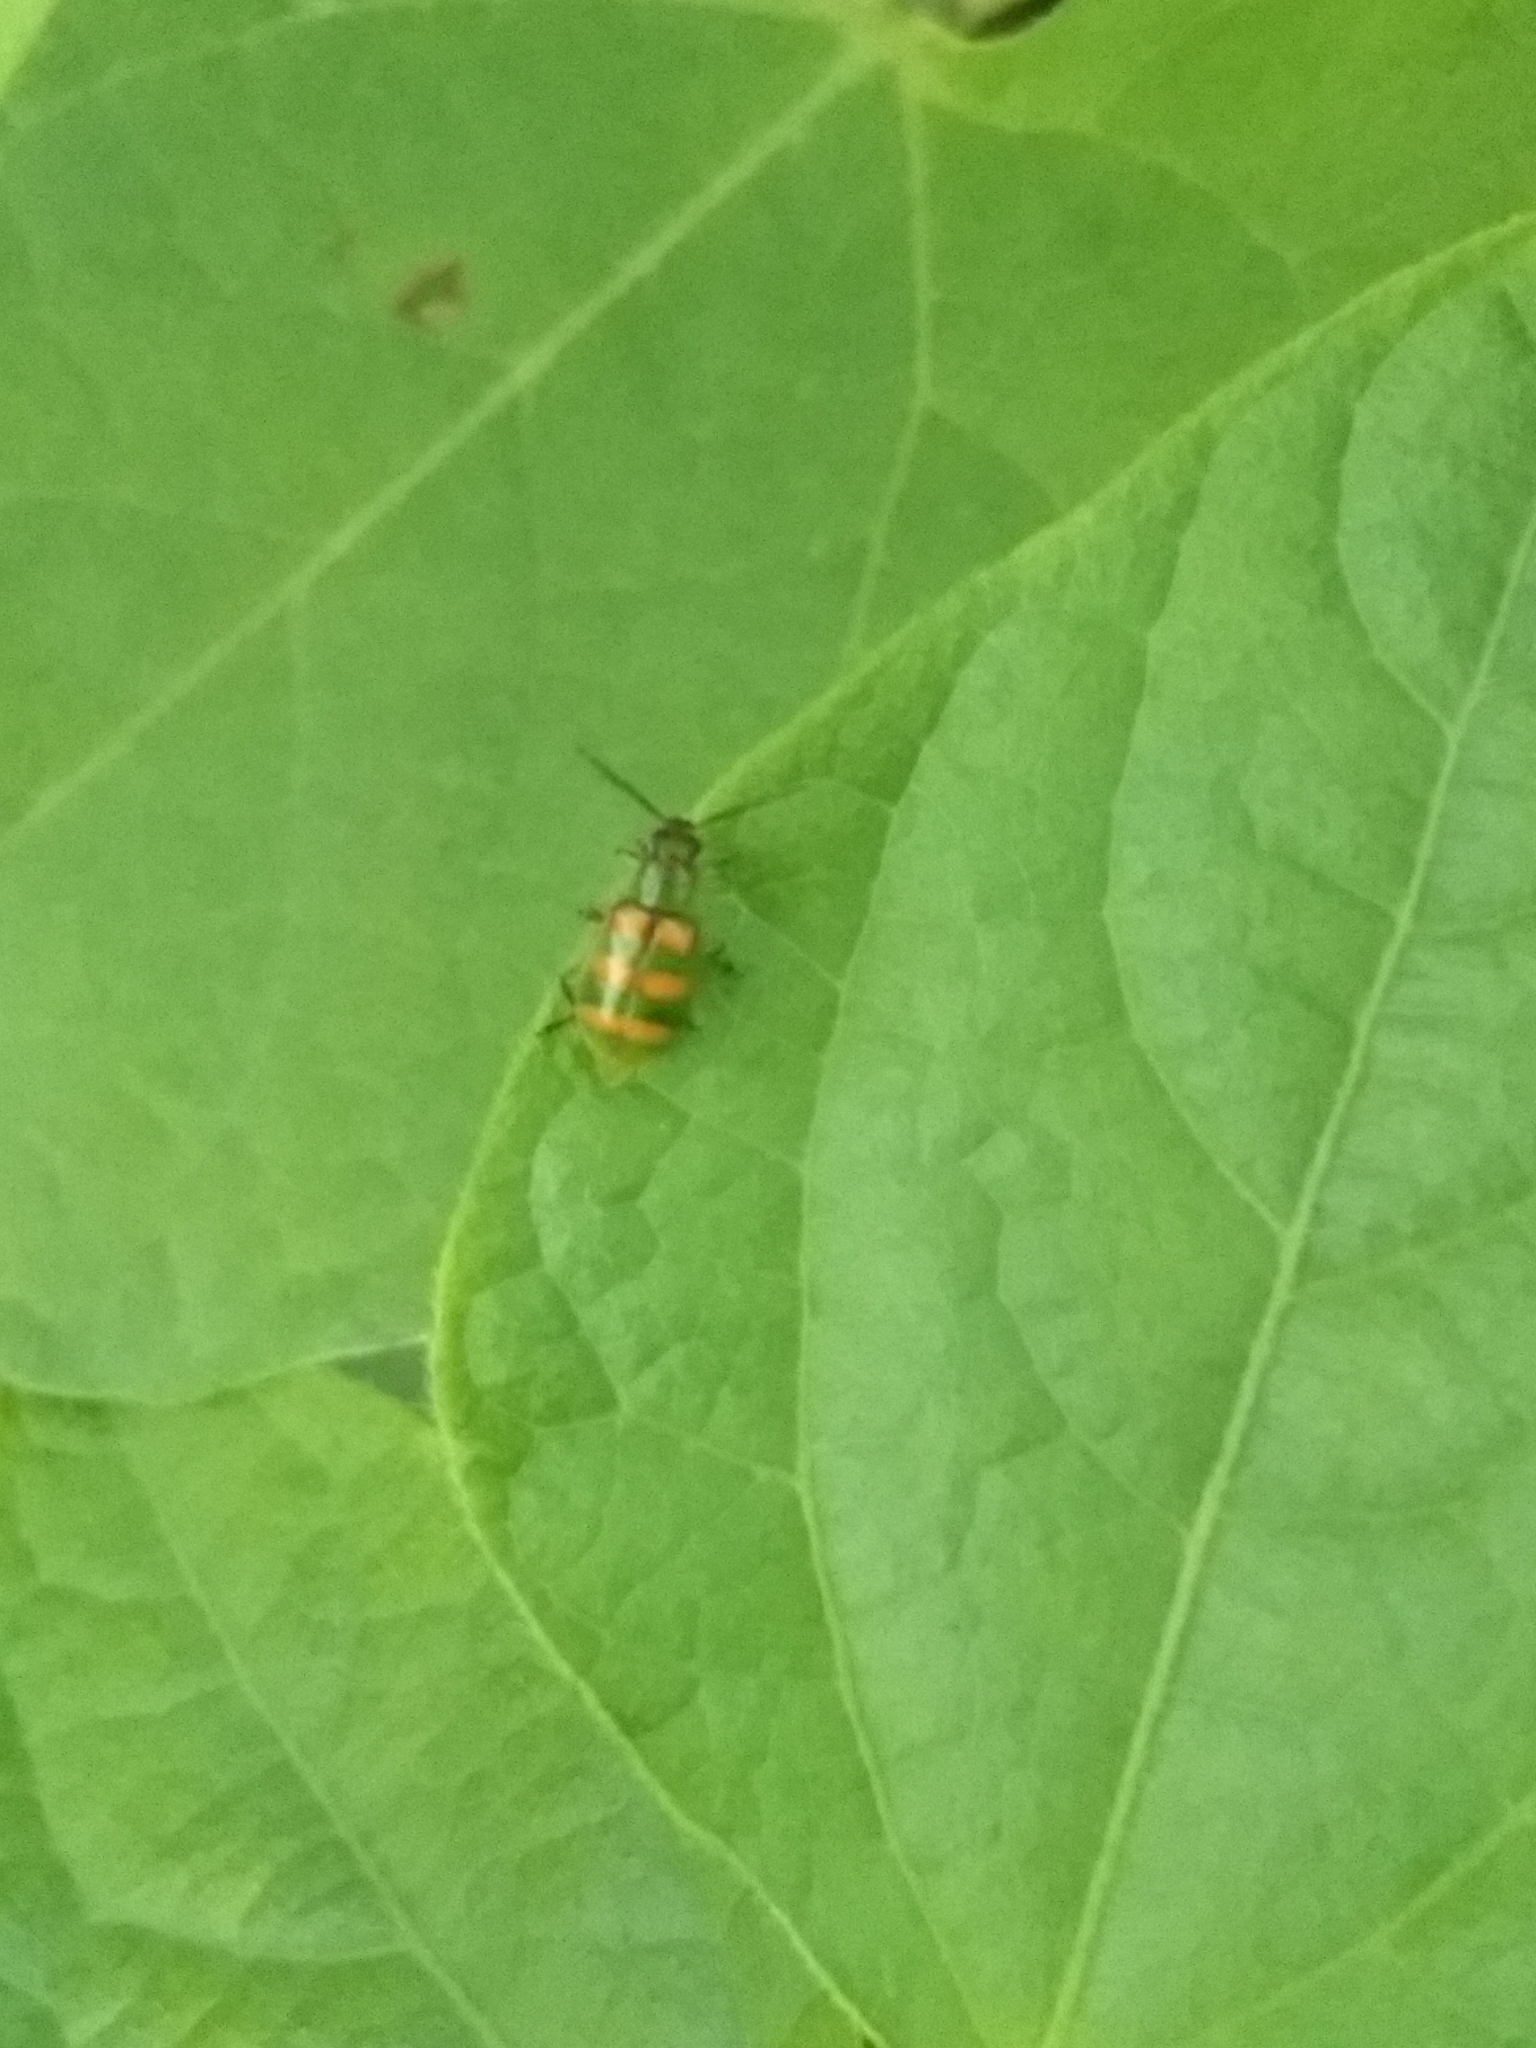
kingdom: Animalia
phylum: Arthropoda
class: Insecta
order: Coleoptera
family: Chrysomelidae
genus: Diabrotica
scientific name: Diabrotica speciosa
